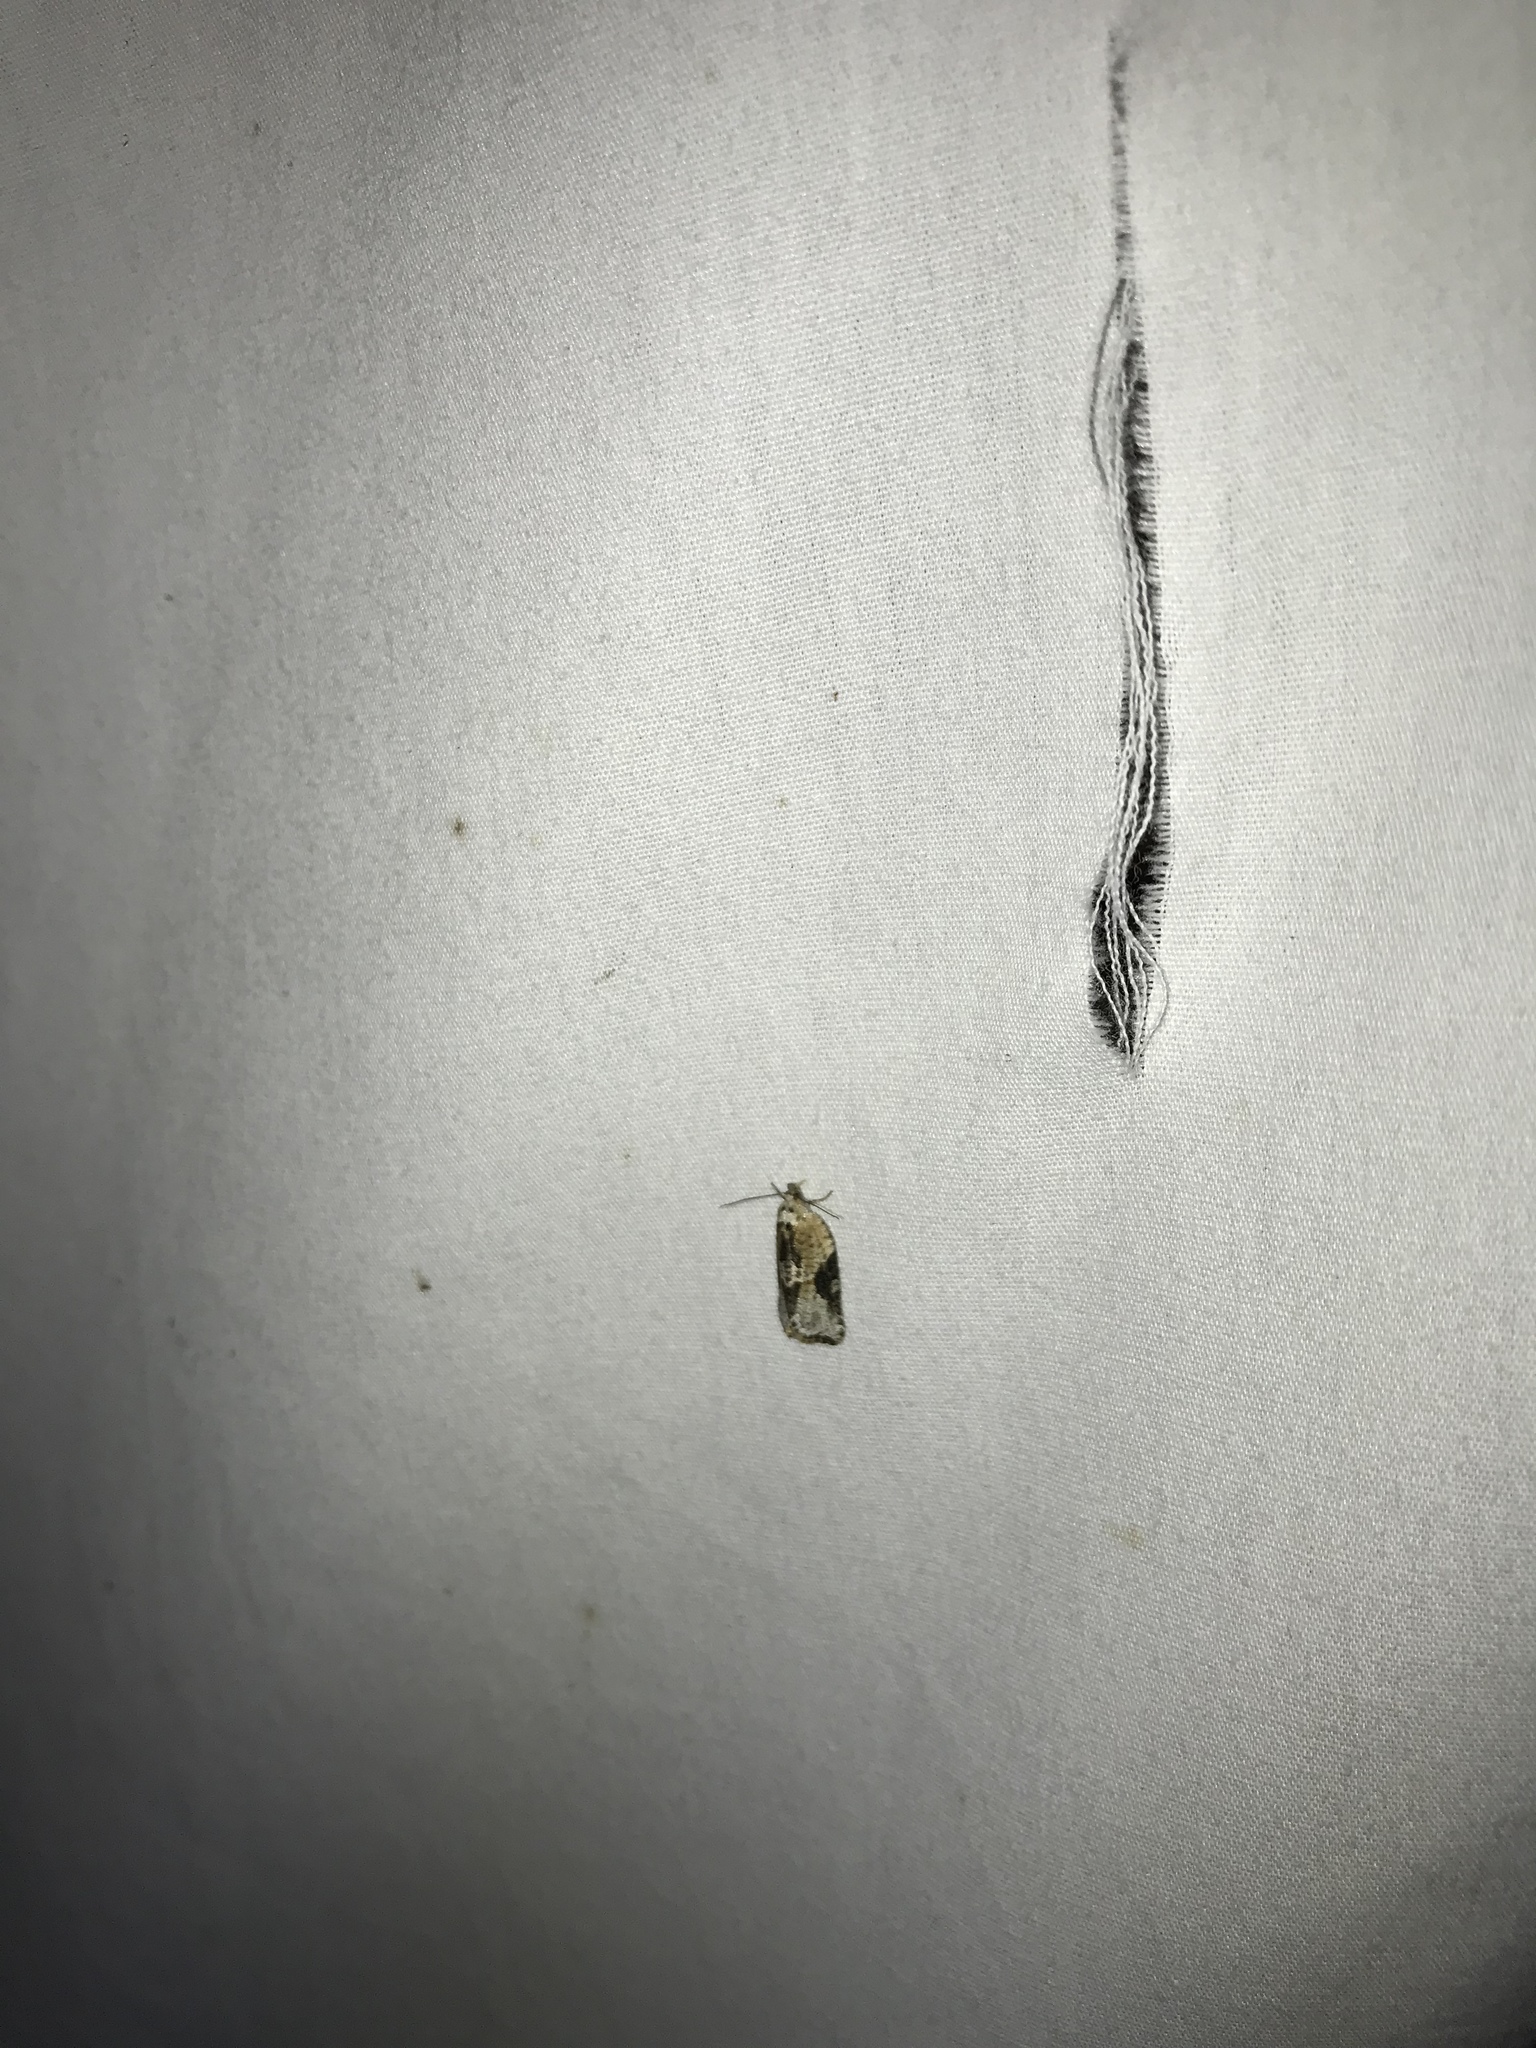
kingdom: Animalia
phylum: Arthropoda
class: Insecta
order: Lepidoptera
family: Tortricidae
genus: Argyrotaenia
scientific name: Argyrotaenia mariana
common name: Gray-banded leafroller moth
